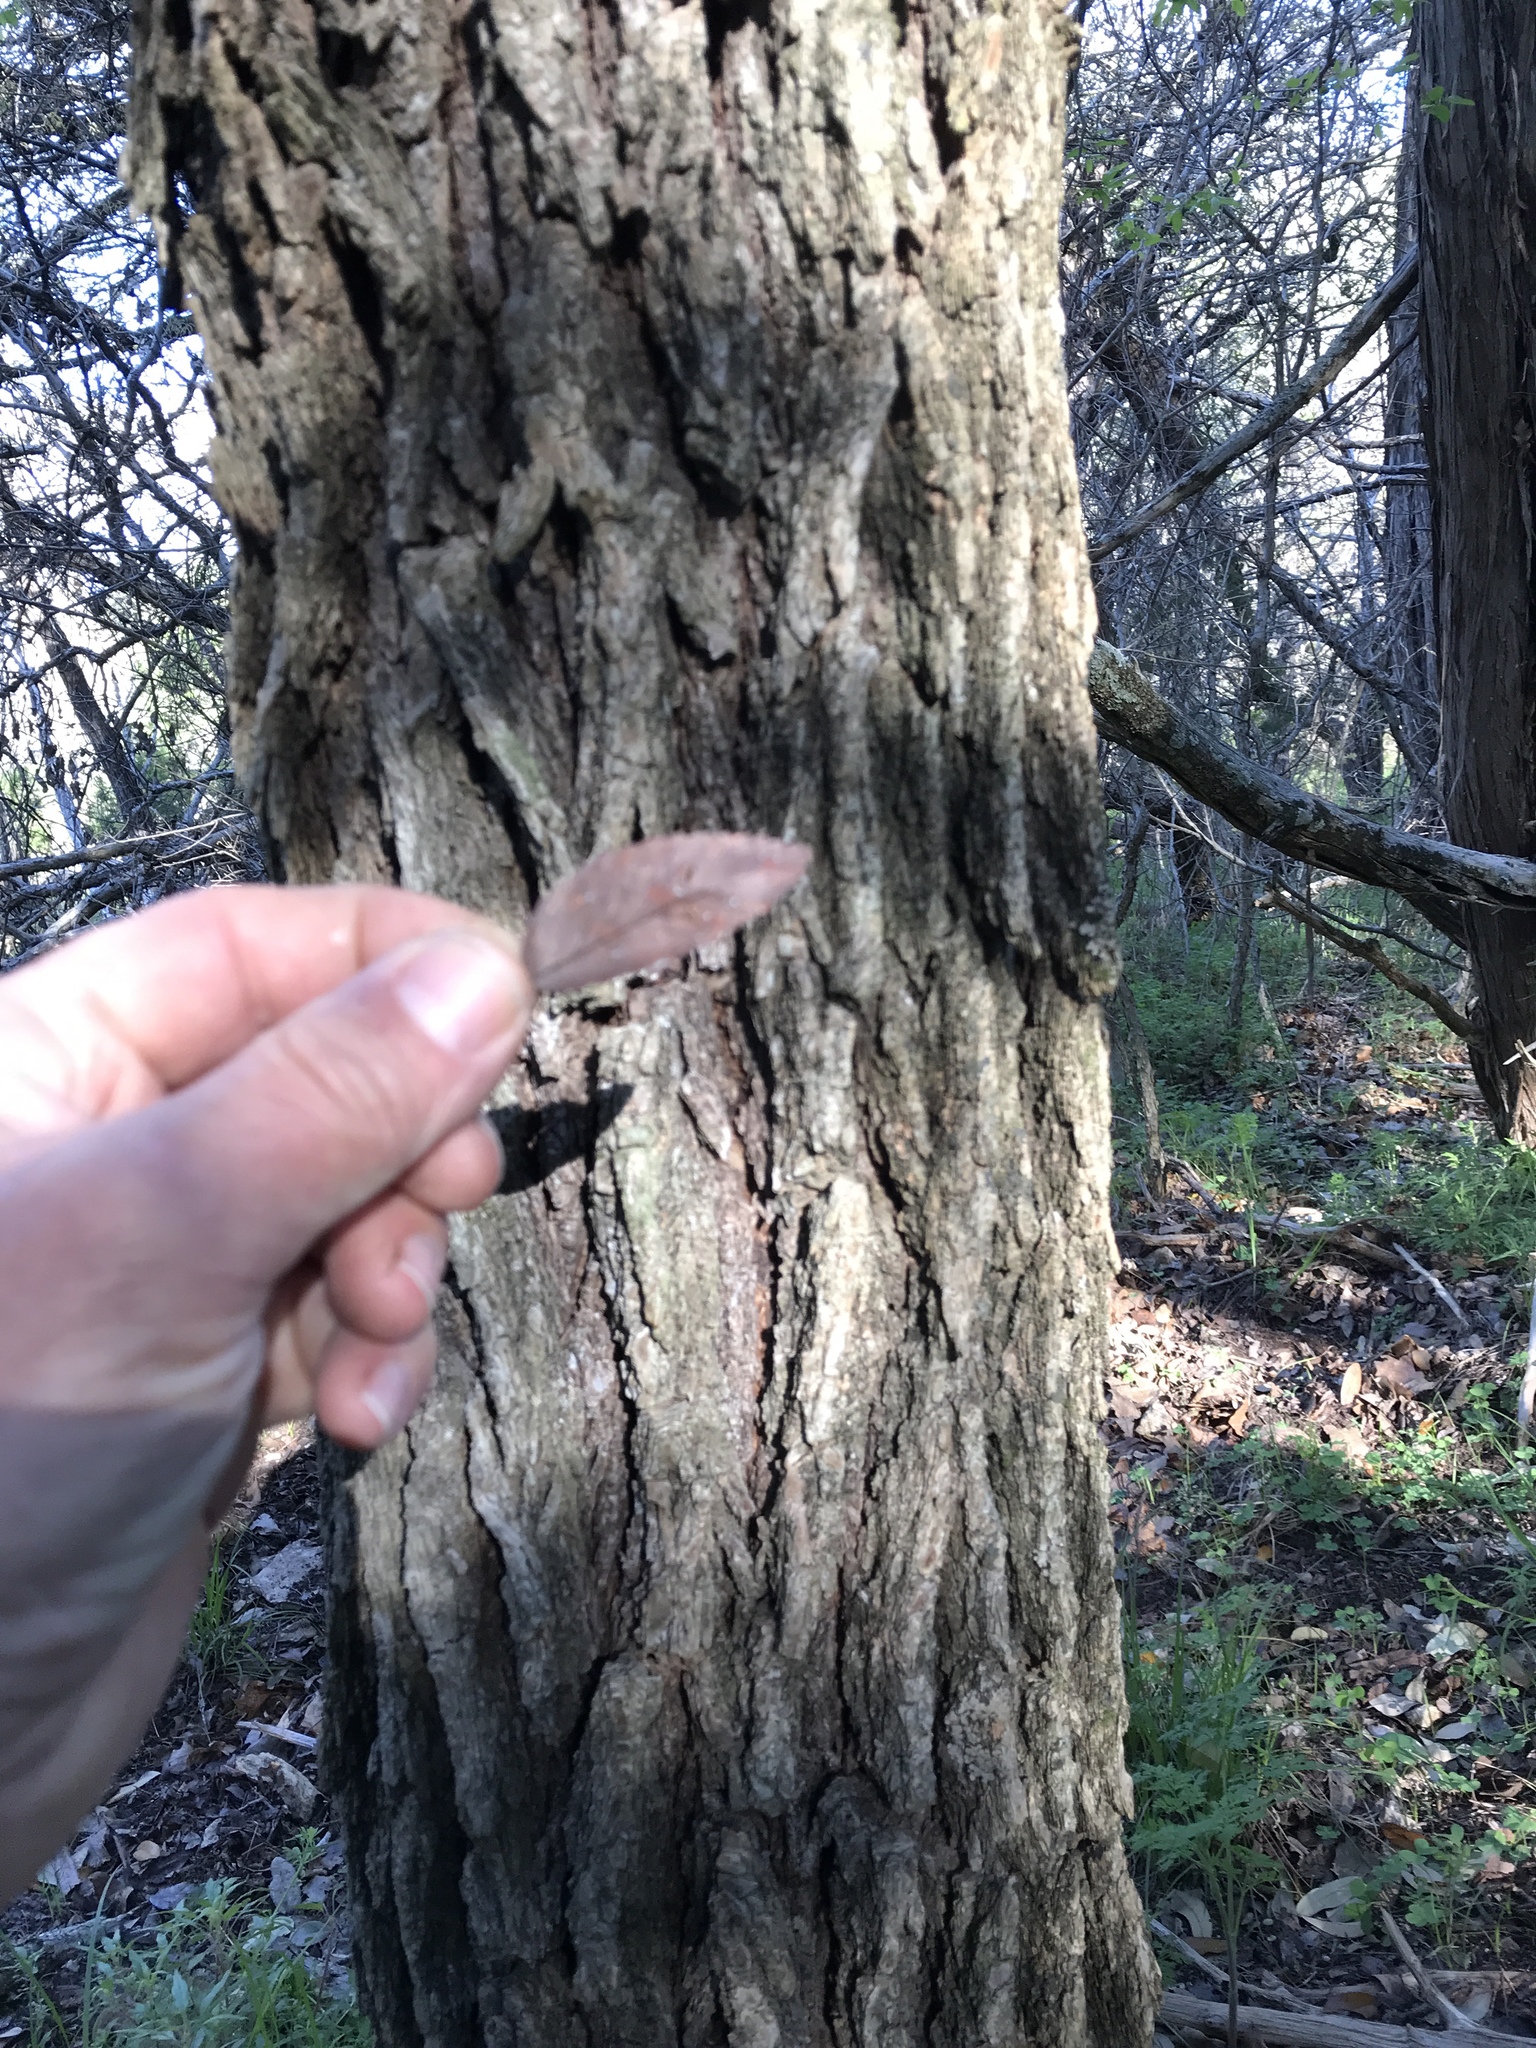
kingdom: Plantae
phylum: Tracheophyta
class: Magnoliopsida
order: Rosales
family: Ulmaceae
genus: Ulmus
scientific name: Ulmus crassifolia
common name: Basket elm
